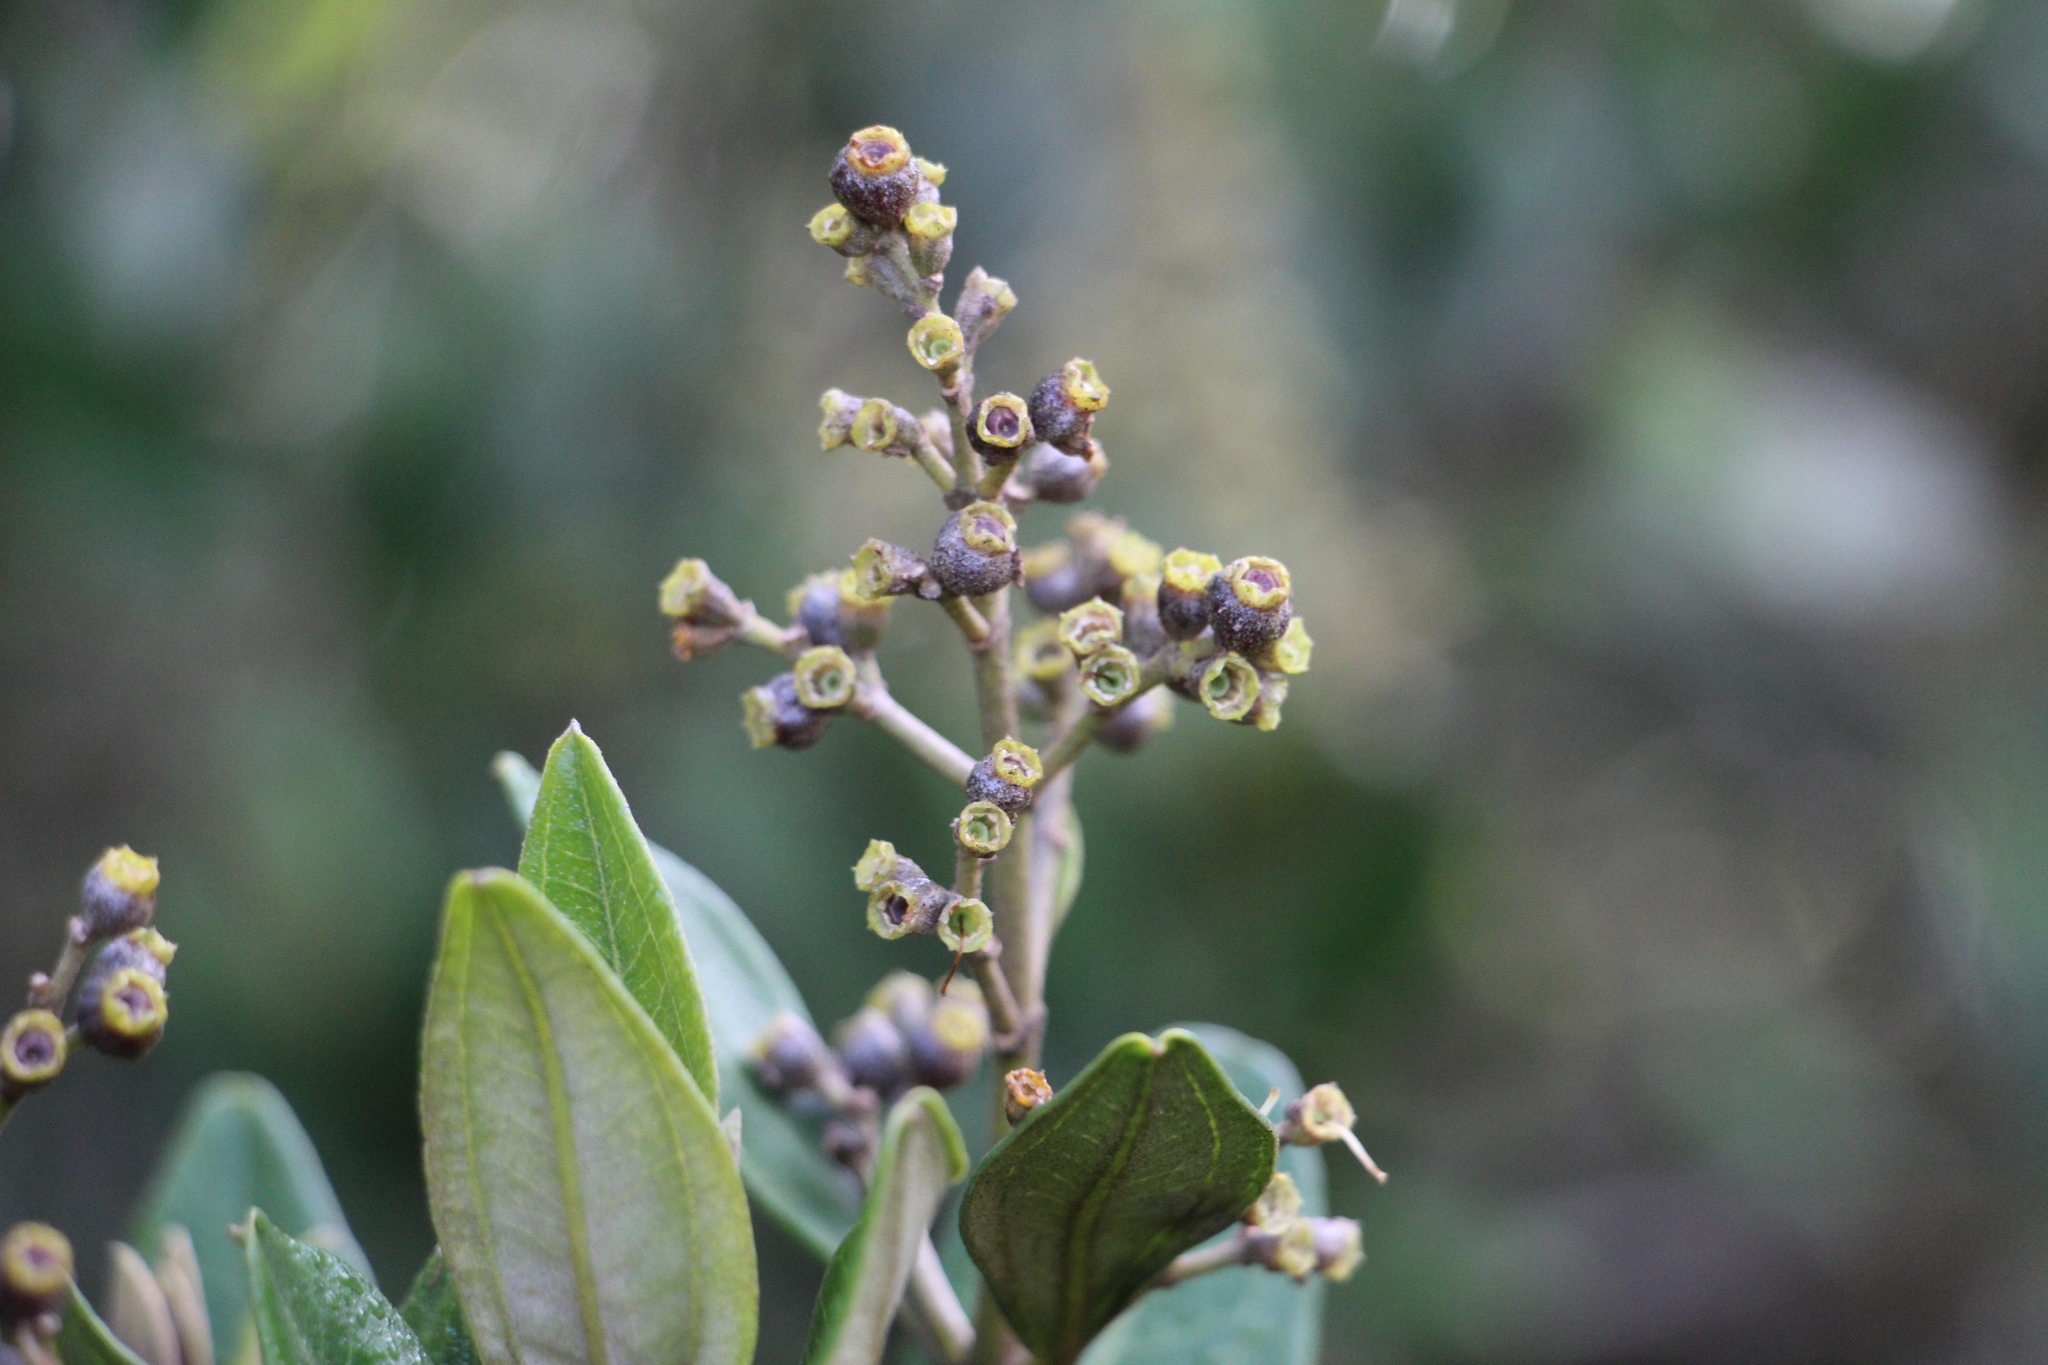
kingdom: Plantae
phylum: Tracheophyta
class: Magnoliopsida
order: Myrtales
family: Melastomataceae
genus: Miconia
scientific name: Miconia squamulosa
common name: Squamulose maya
